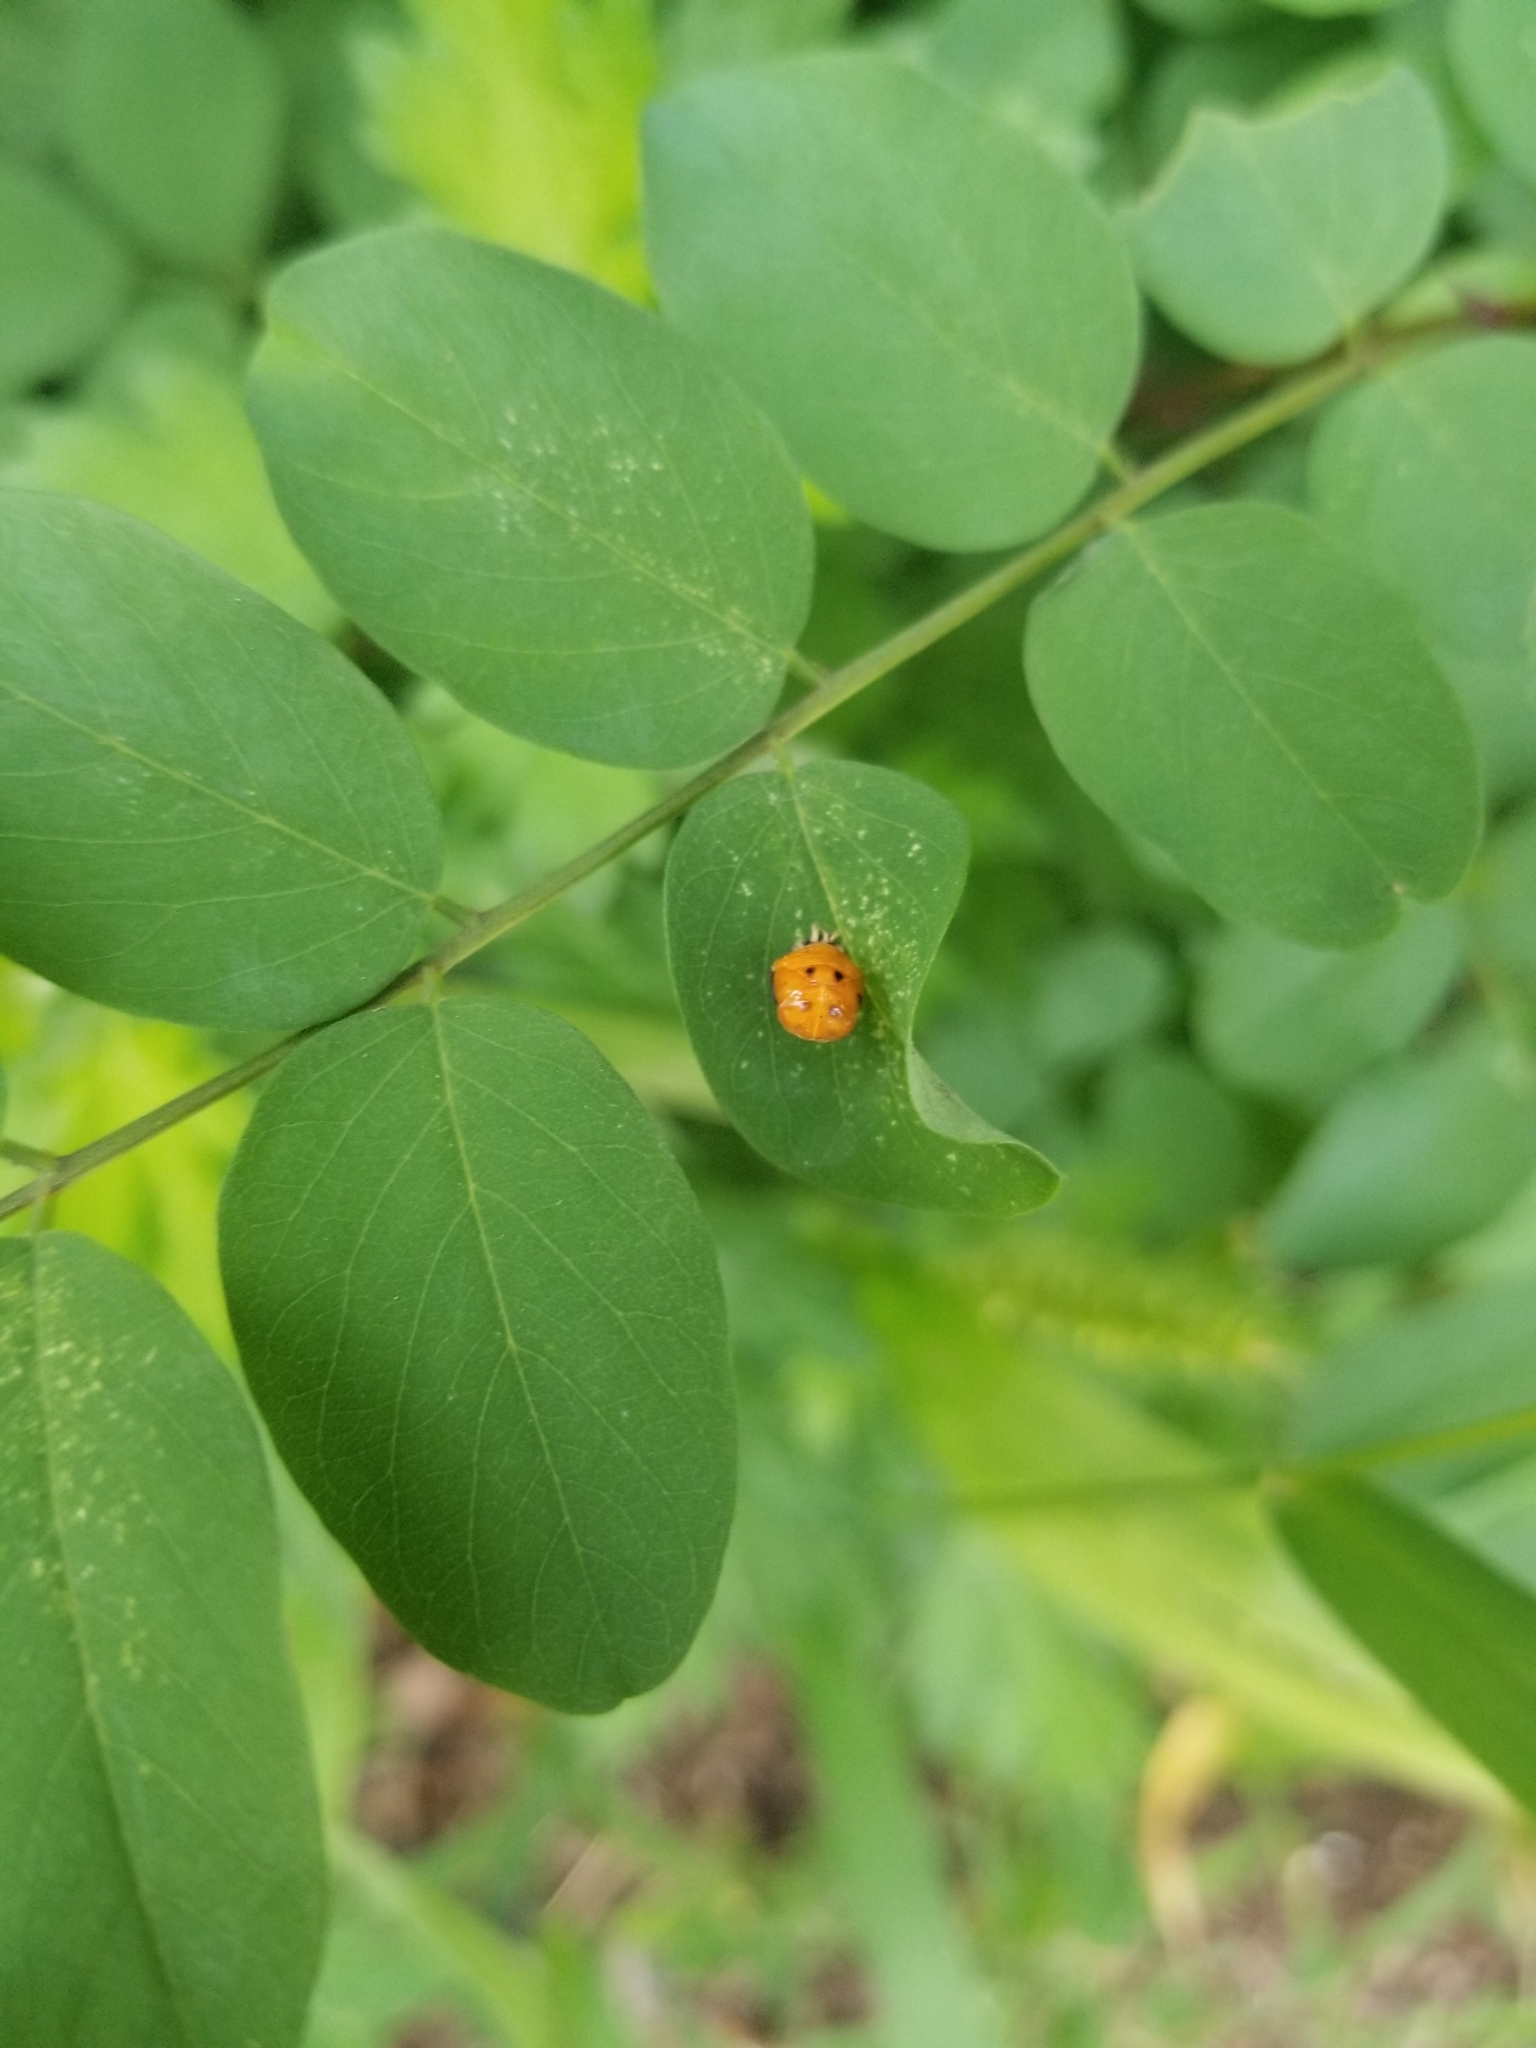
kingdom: Animalia
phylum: Arthropoda
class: Insecta
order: Coleoptera
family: Coccinellidae
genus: Harmonia
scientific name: Harmonia axyridis
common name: Harlequin ladybird
